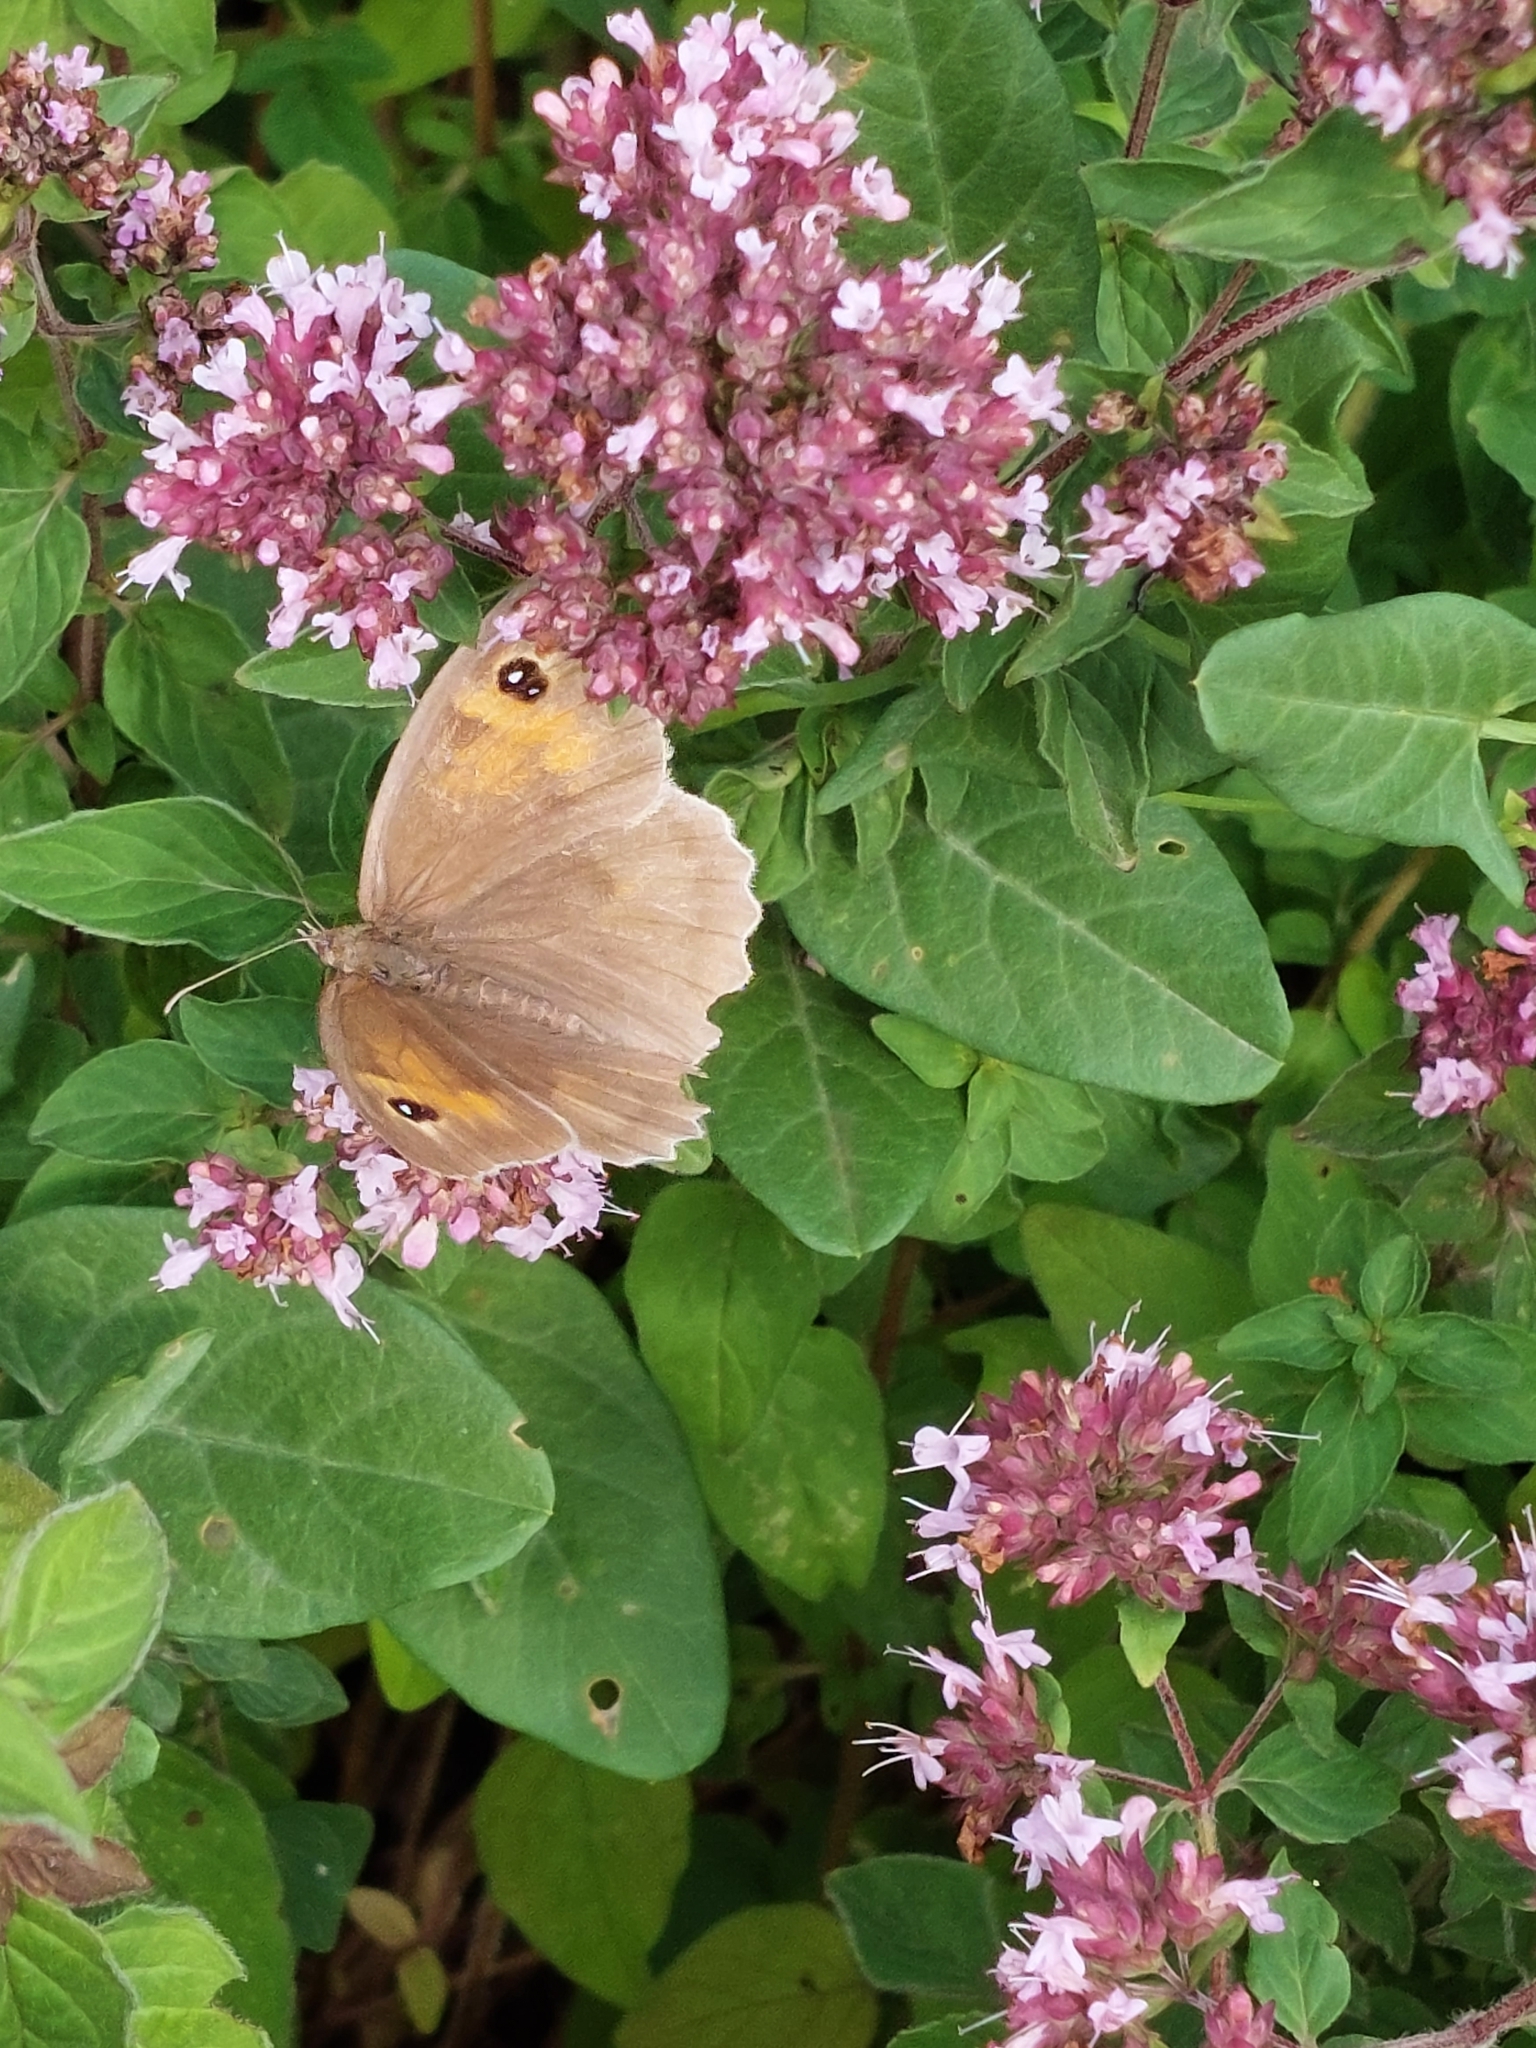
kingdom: Animalia
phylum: Arthropoda
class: Insecta
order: Lepidoptera
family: Nymphalidae
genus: Maniola
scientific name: Maniola jurtina
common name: Meadow brown
